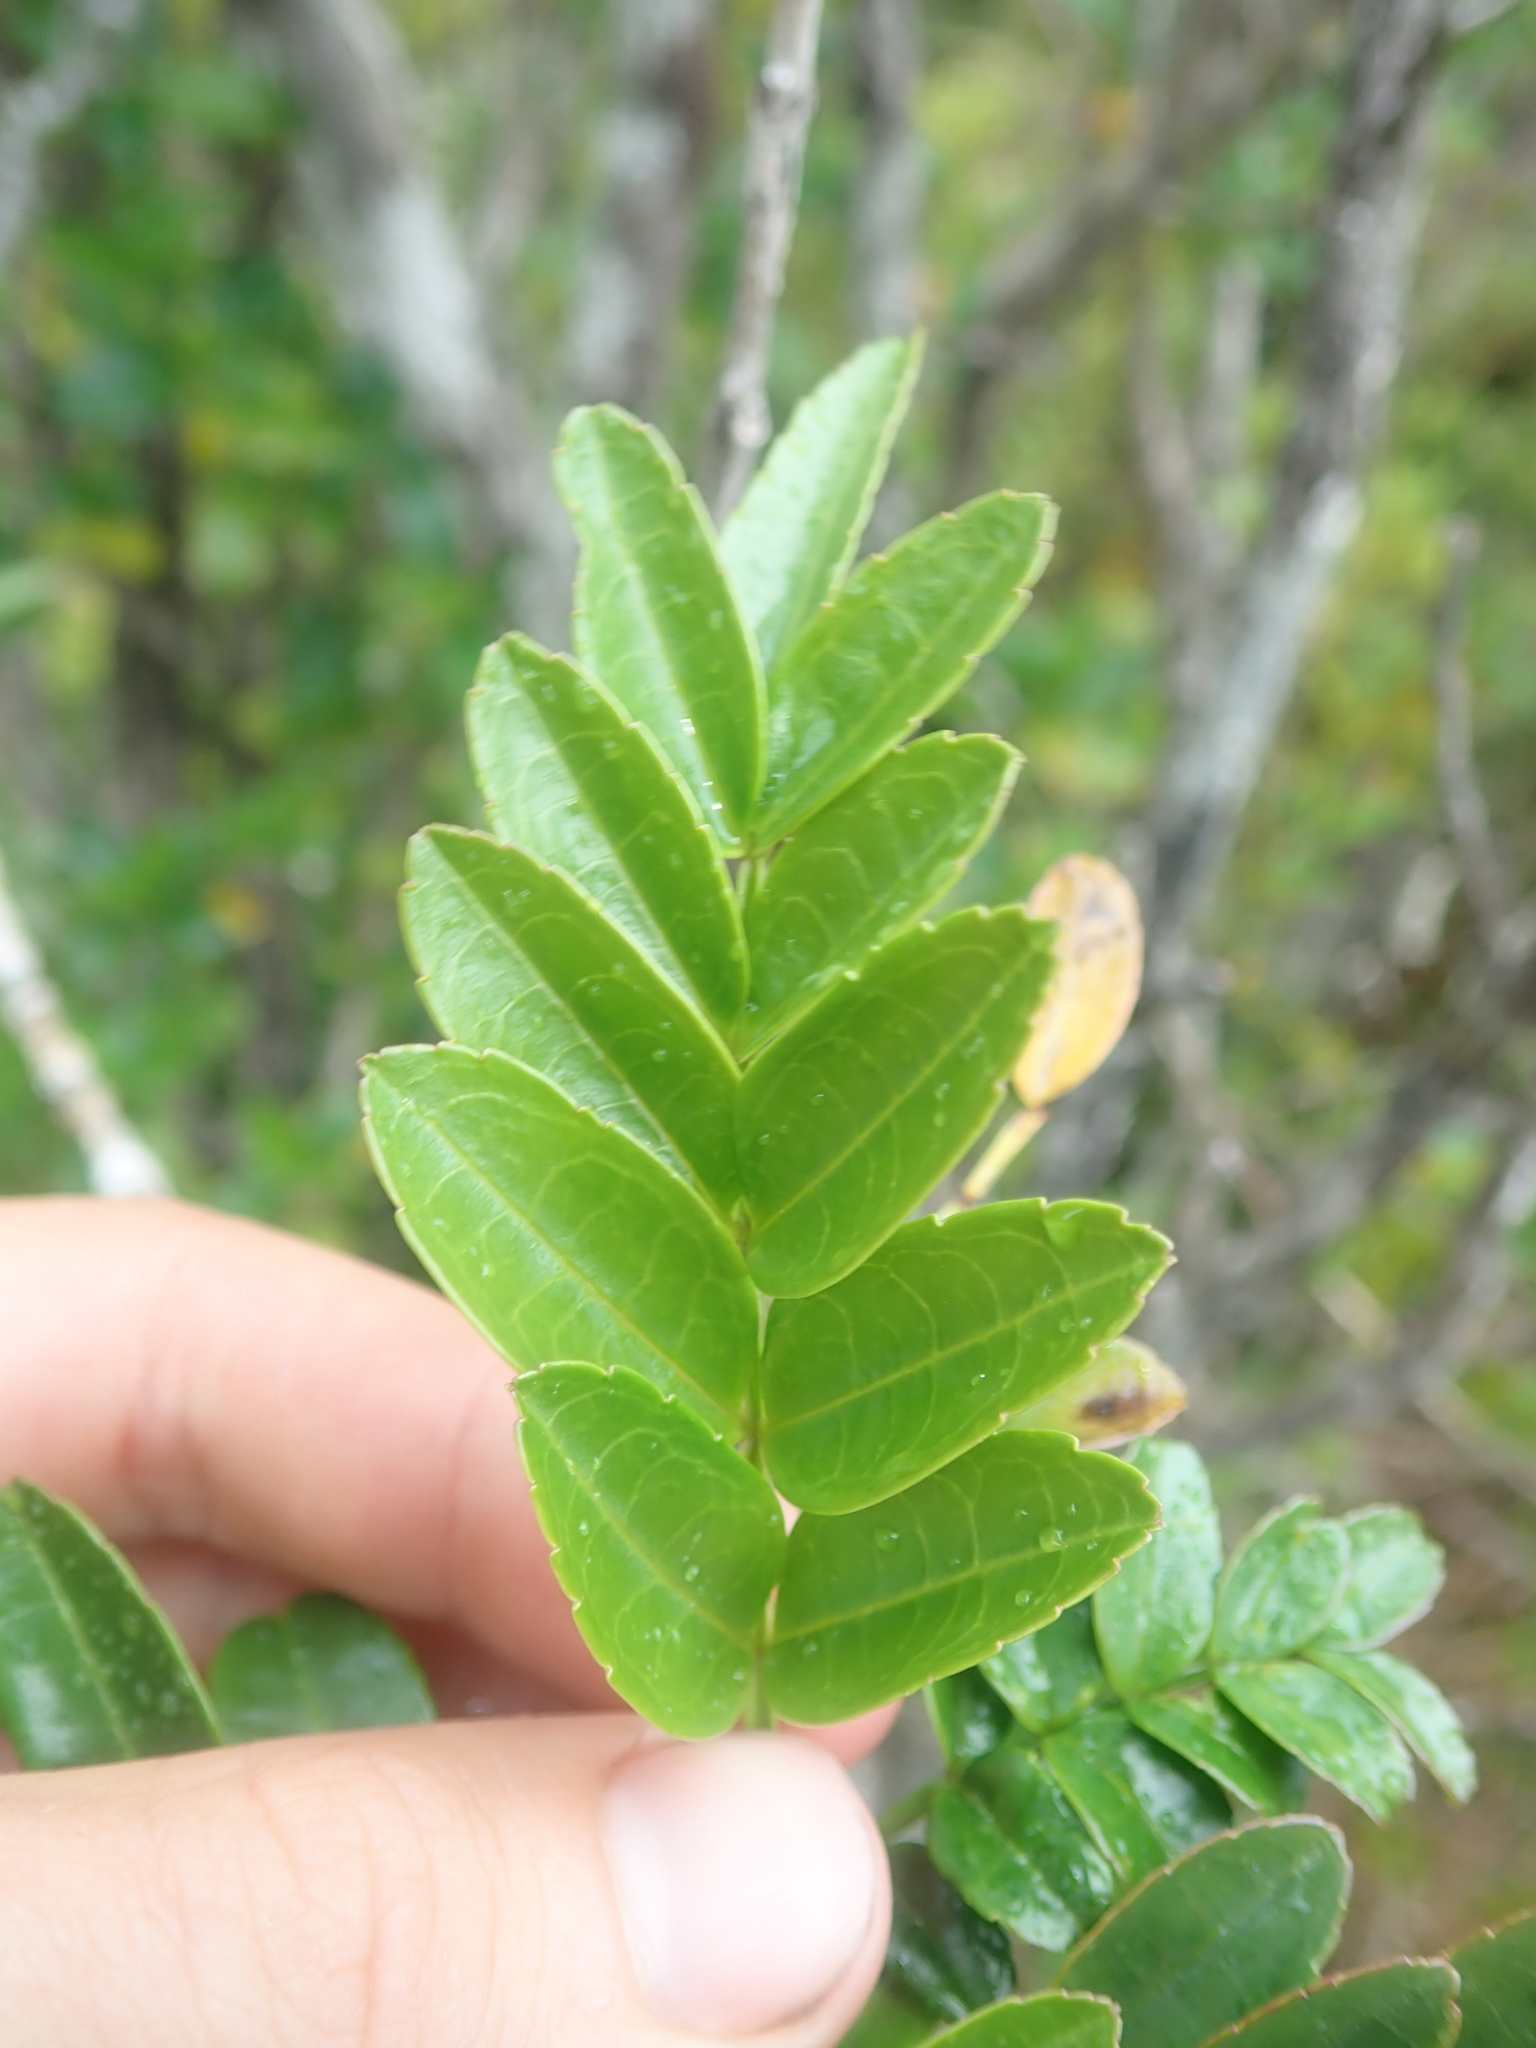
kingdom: Plantae
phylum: Tracheophyta
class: Magnoliopsida
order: Lamiales
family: Bignoniaceae
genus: Campsidium
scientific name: Campsidium valdivianum
